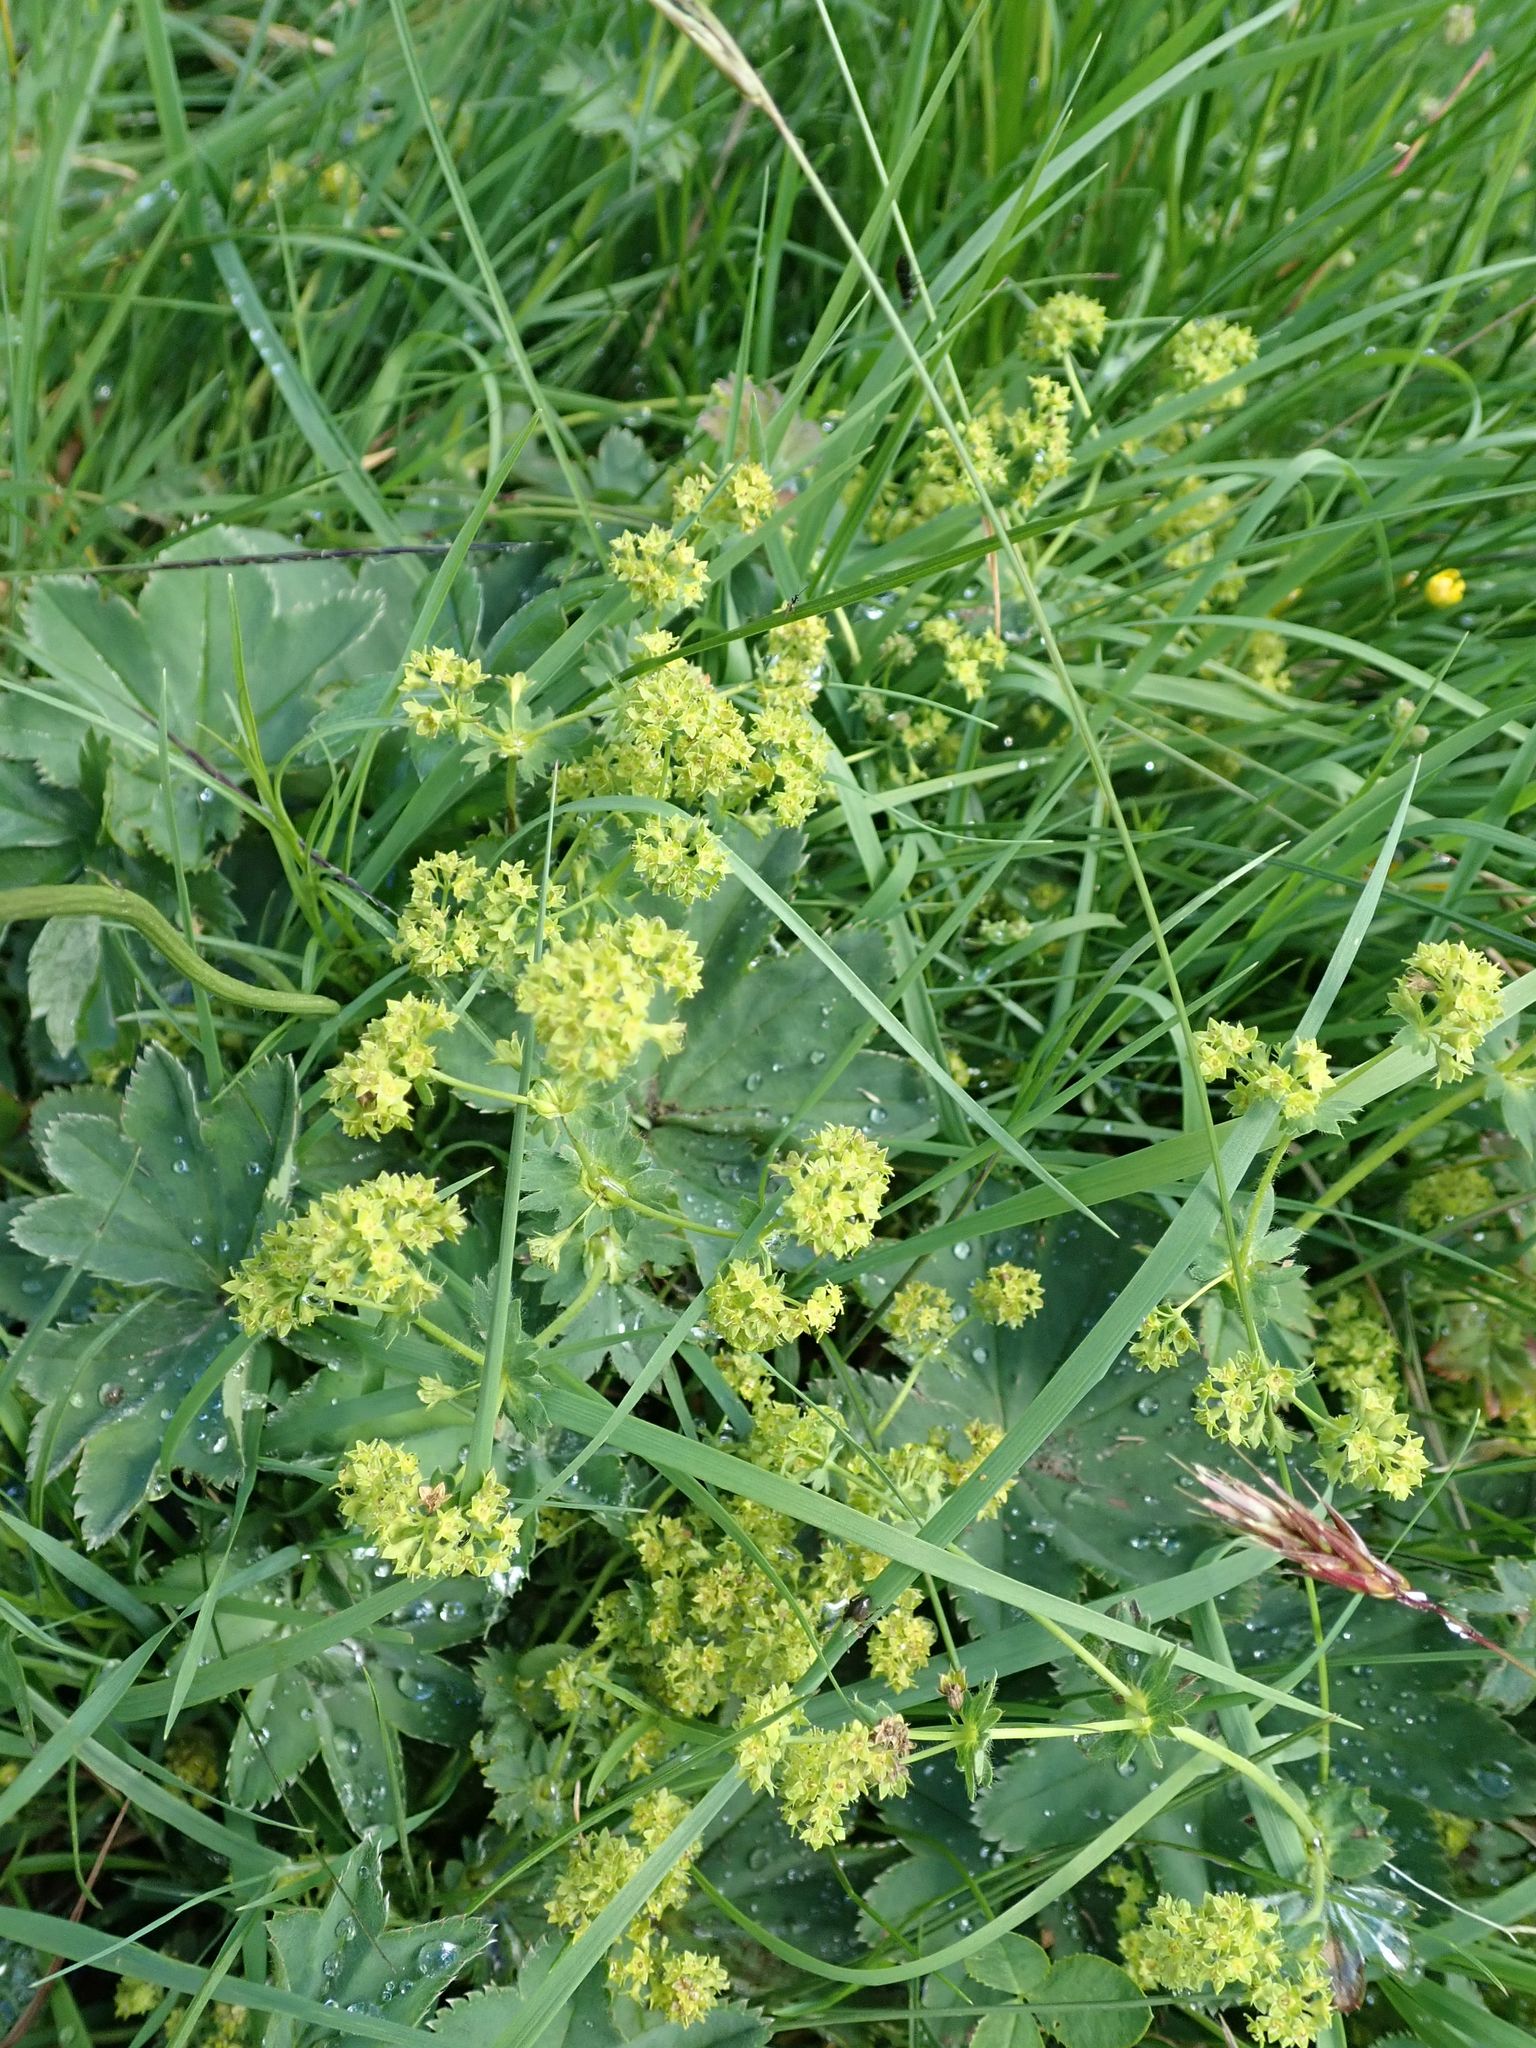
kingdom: Plantae
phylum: Tracheophyta
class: Magnoliopsida
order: Rosales
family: Rosaceae
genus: Alchemilla
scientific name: Alchemilla vulgaris
